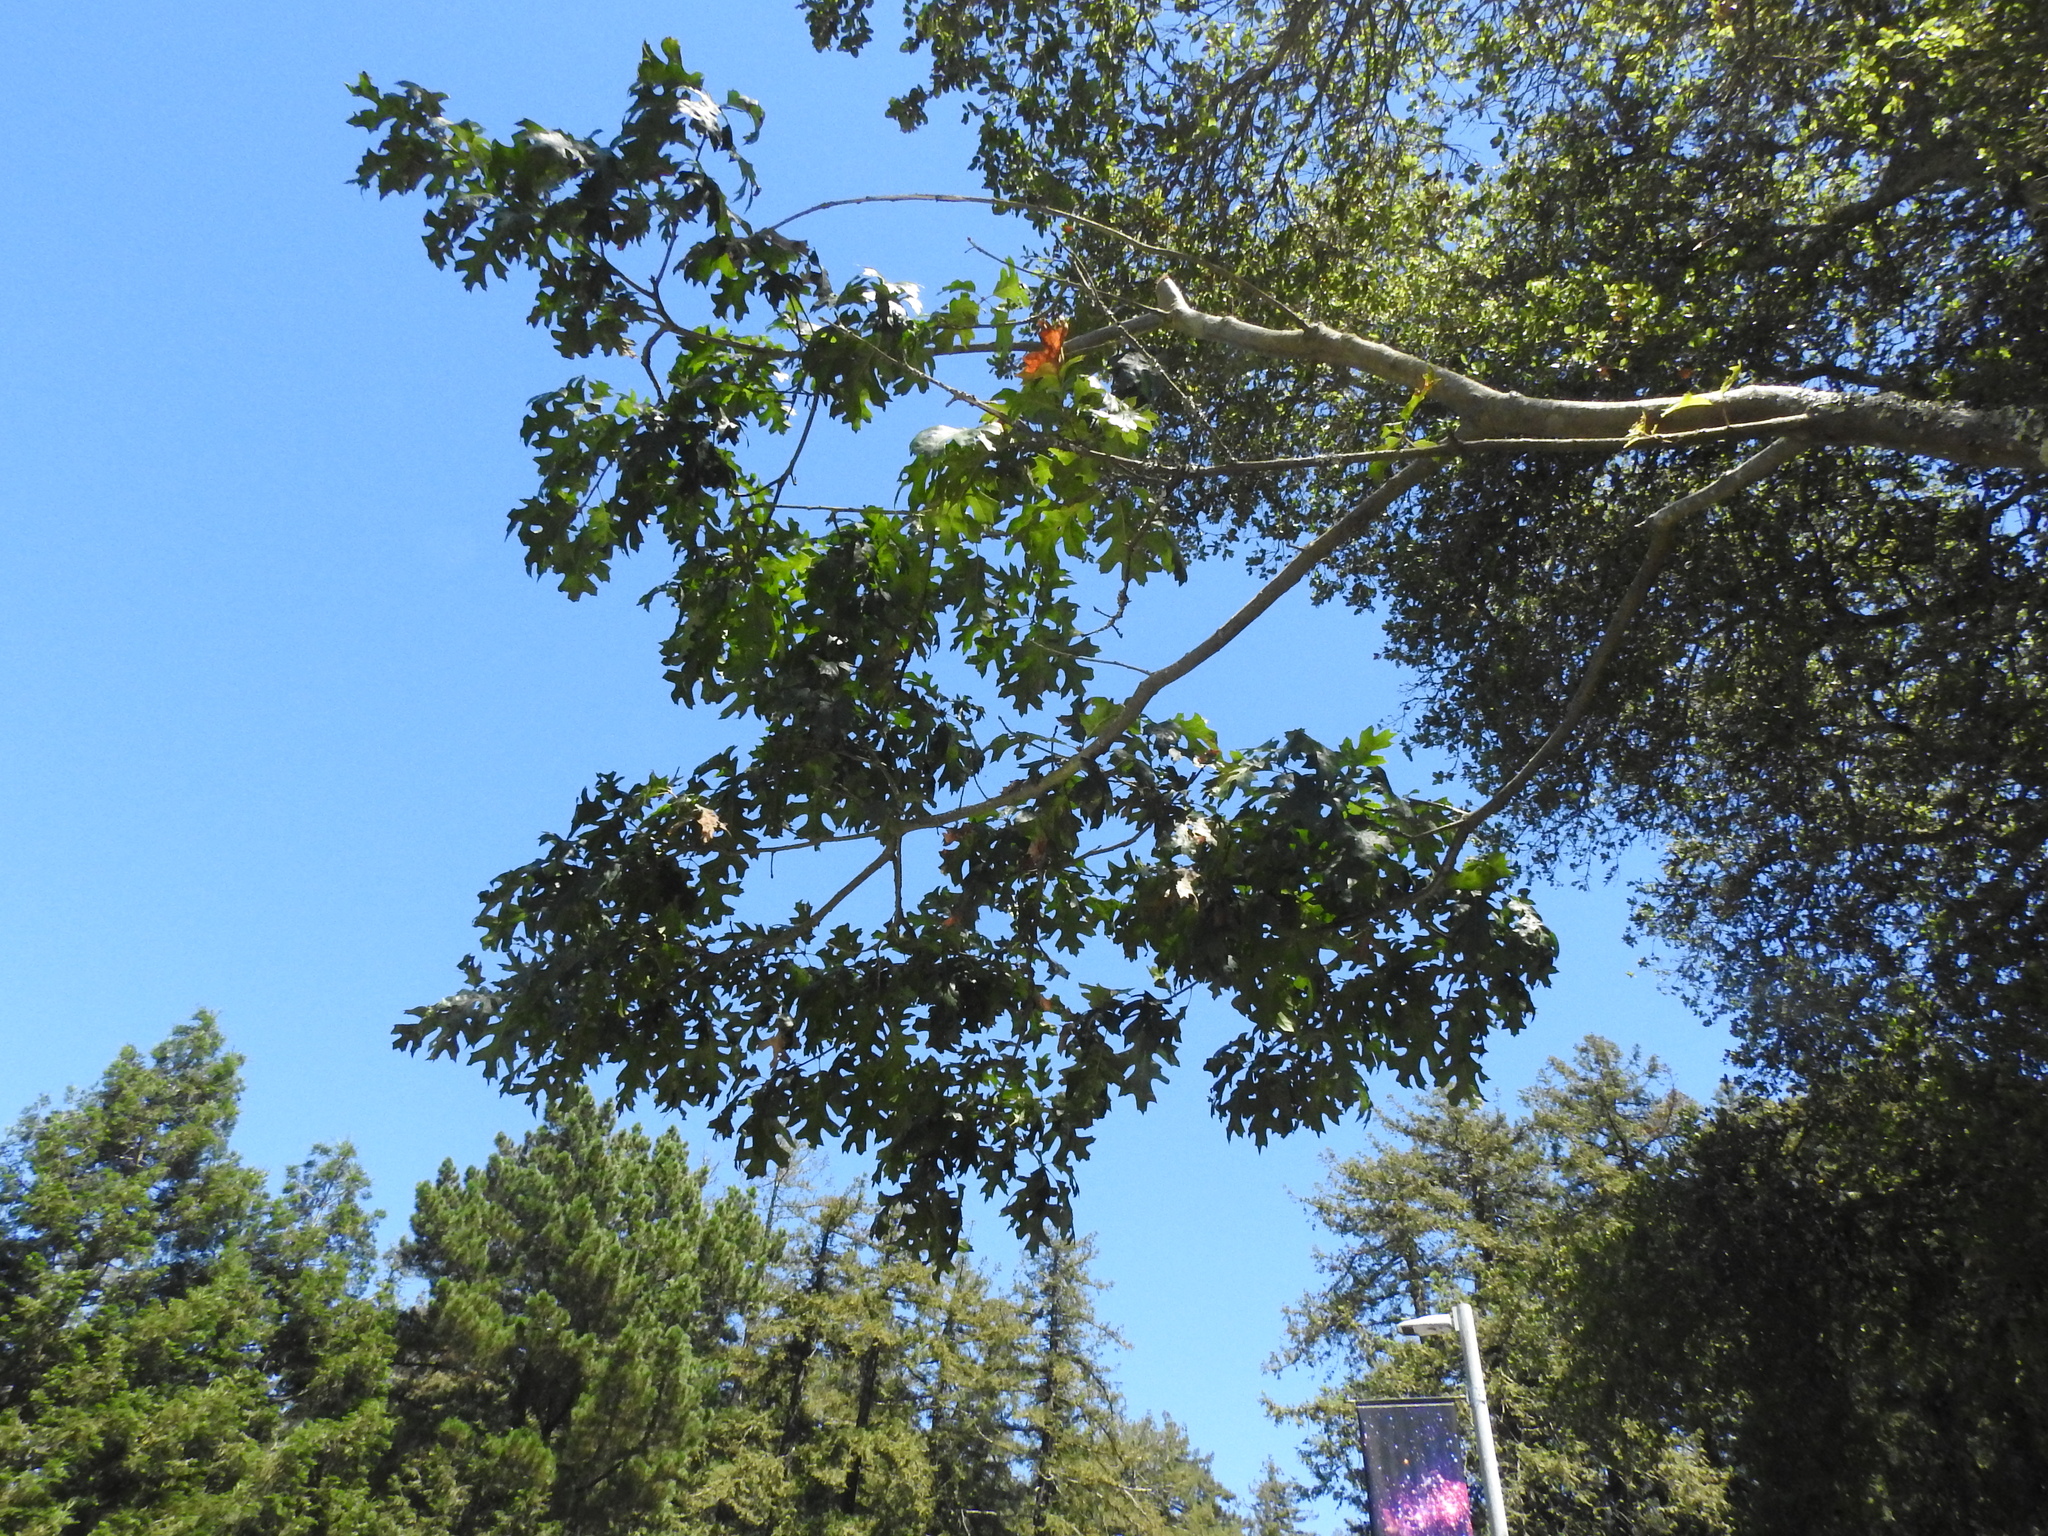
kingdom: Plantae
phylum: Tracheophyta
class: Magnoliopsida
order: Fagales
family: Fagaceae
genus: Quercus
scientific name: Quercus kelloggii
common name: California black oak
